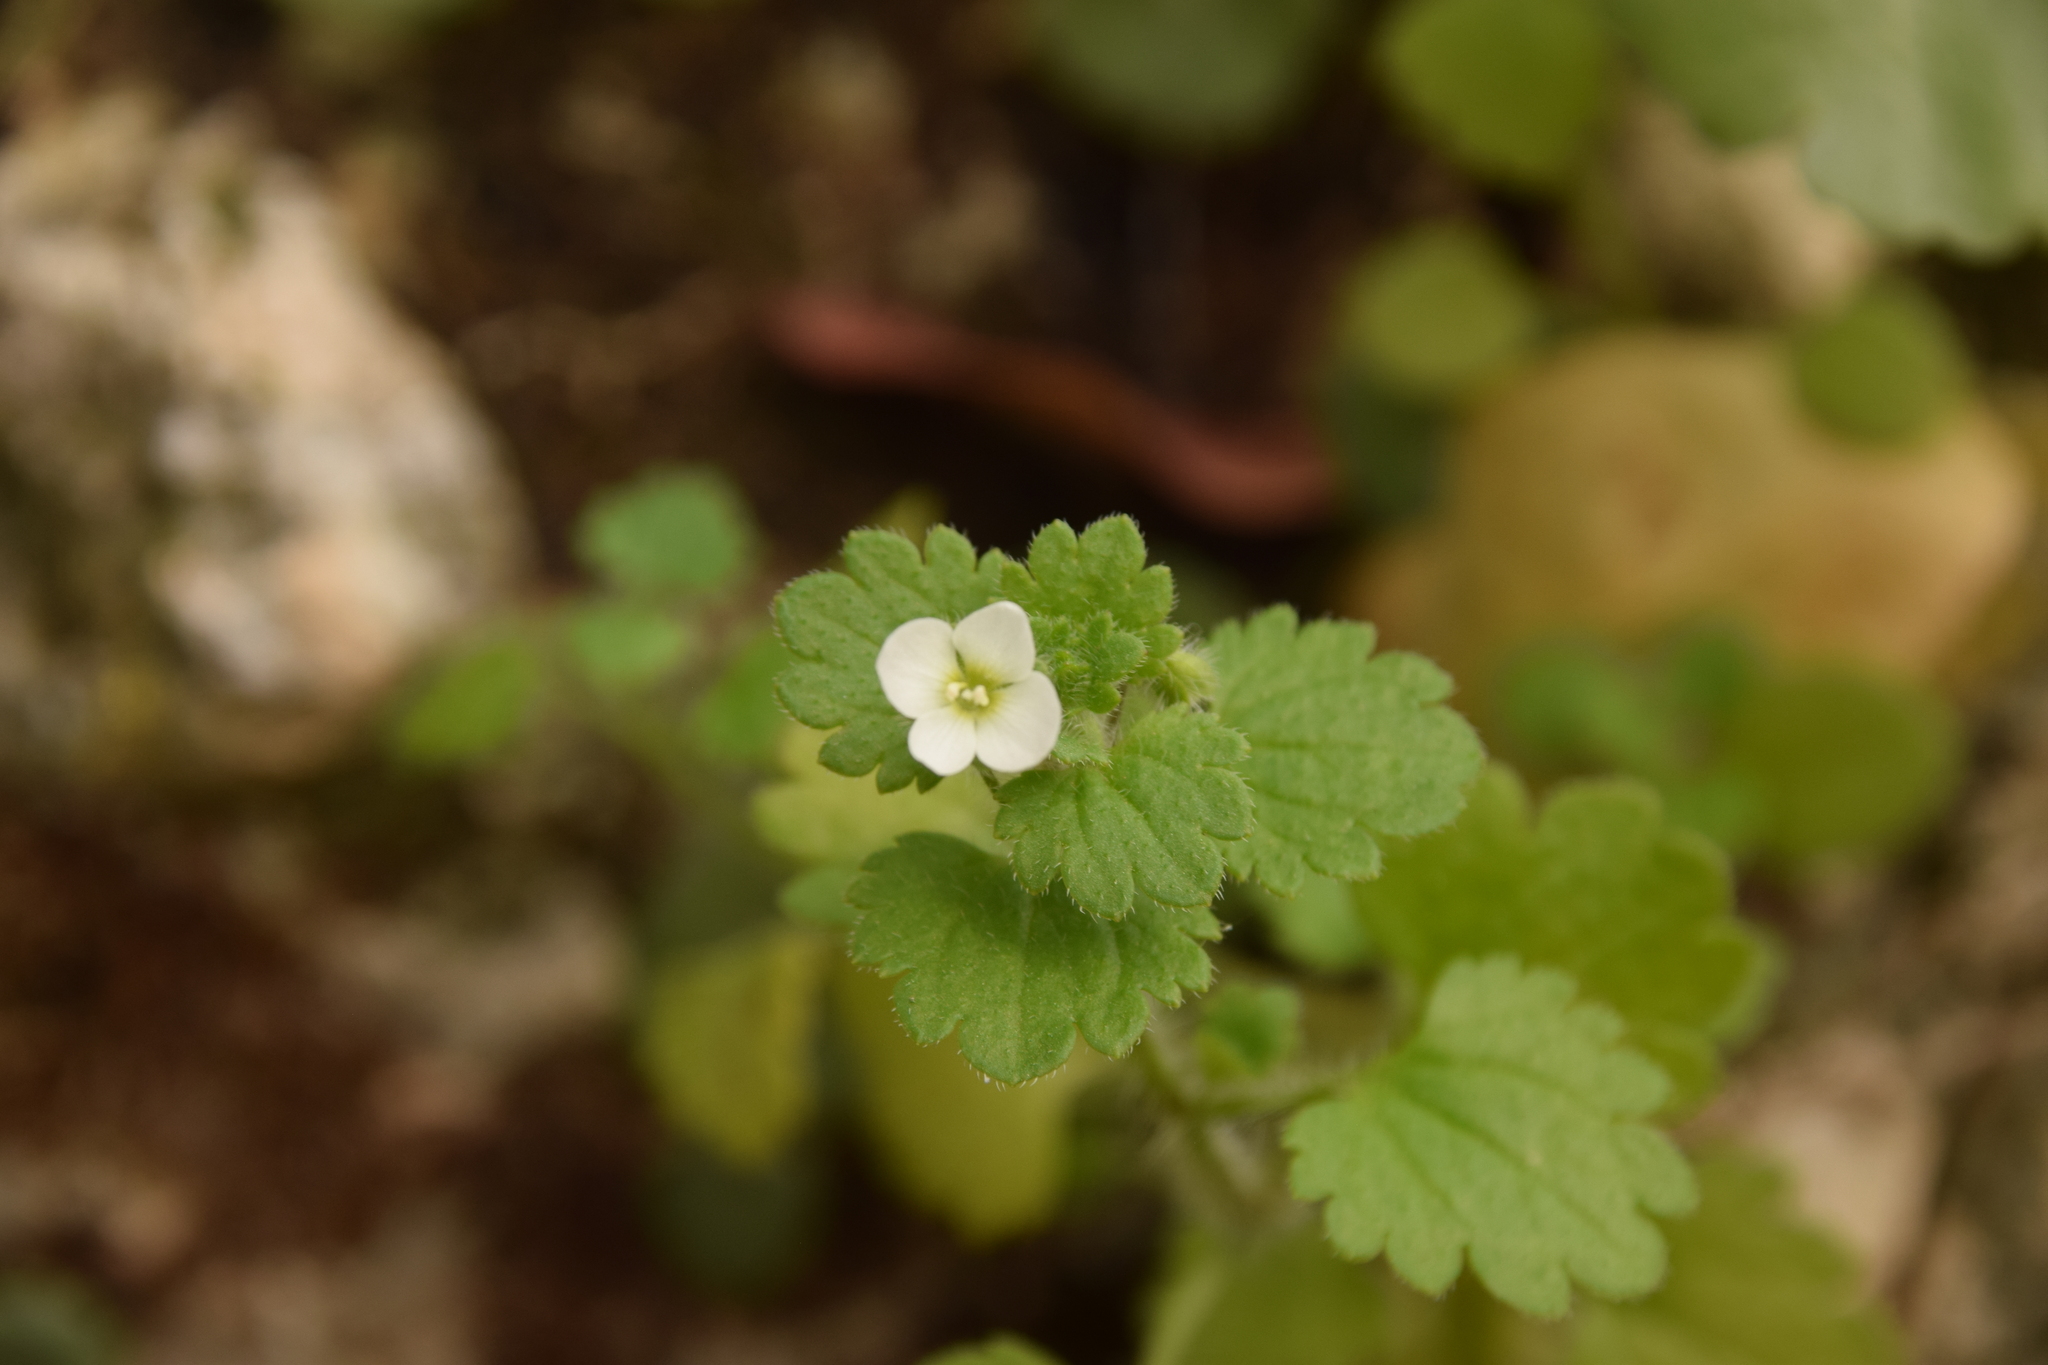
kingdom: Plantae
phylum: Tracheophyta
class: Magnoliopsida
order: Lamiales
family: Plantaginaceae
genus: Veronica
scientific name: Veronica cymbalaria
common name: Pale speedwell
